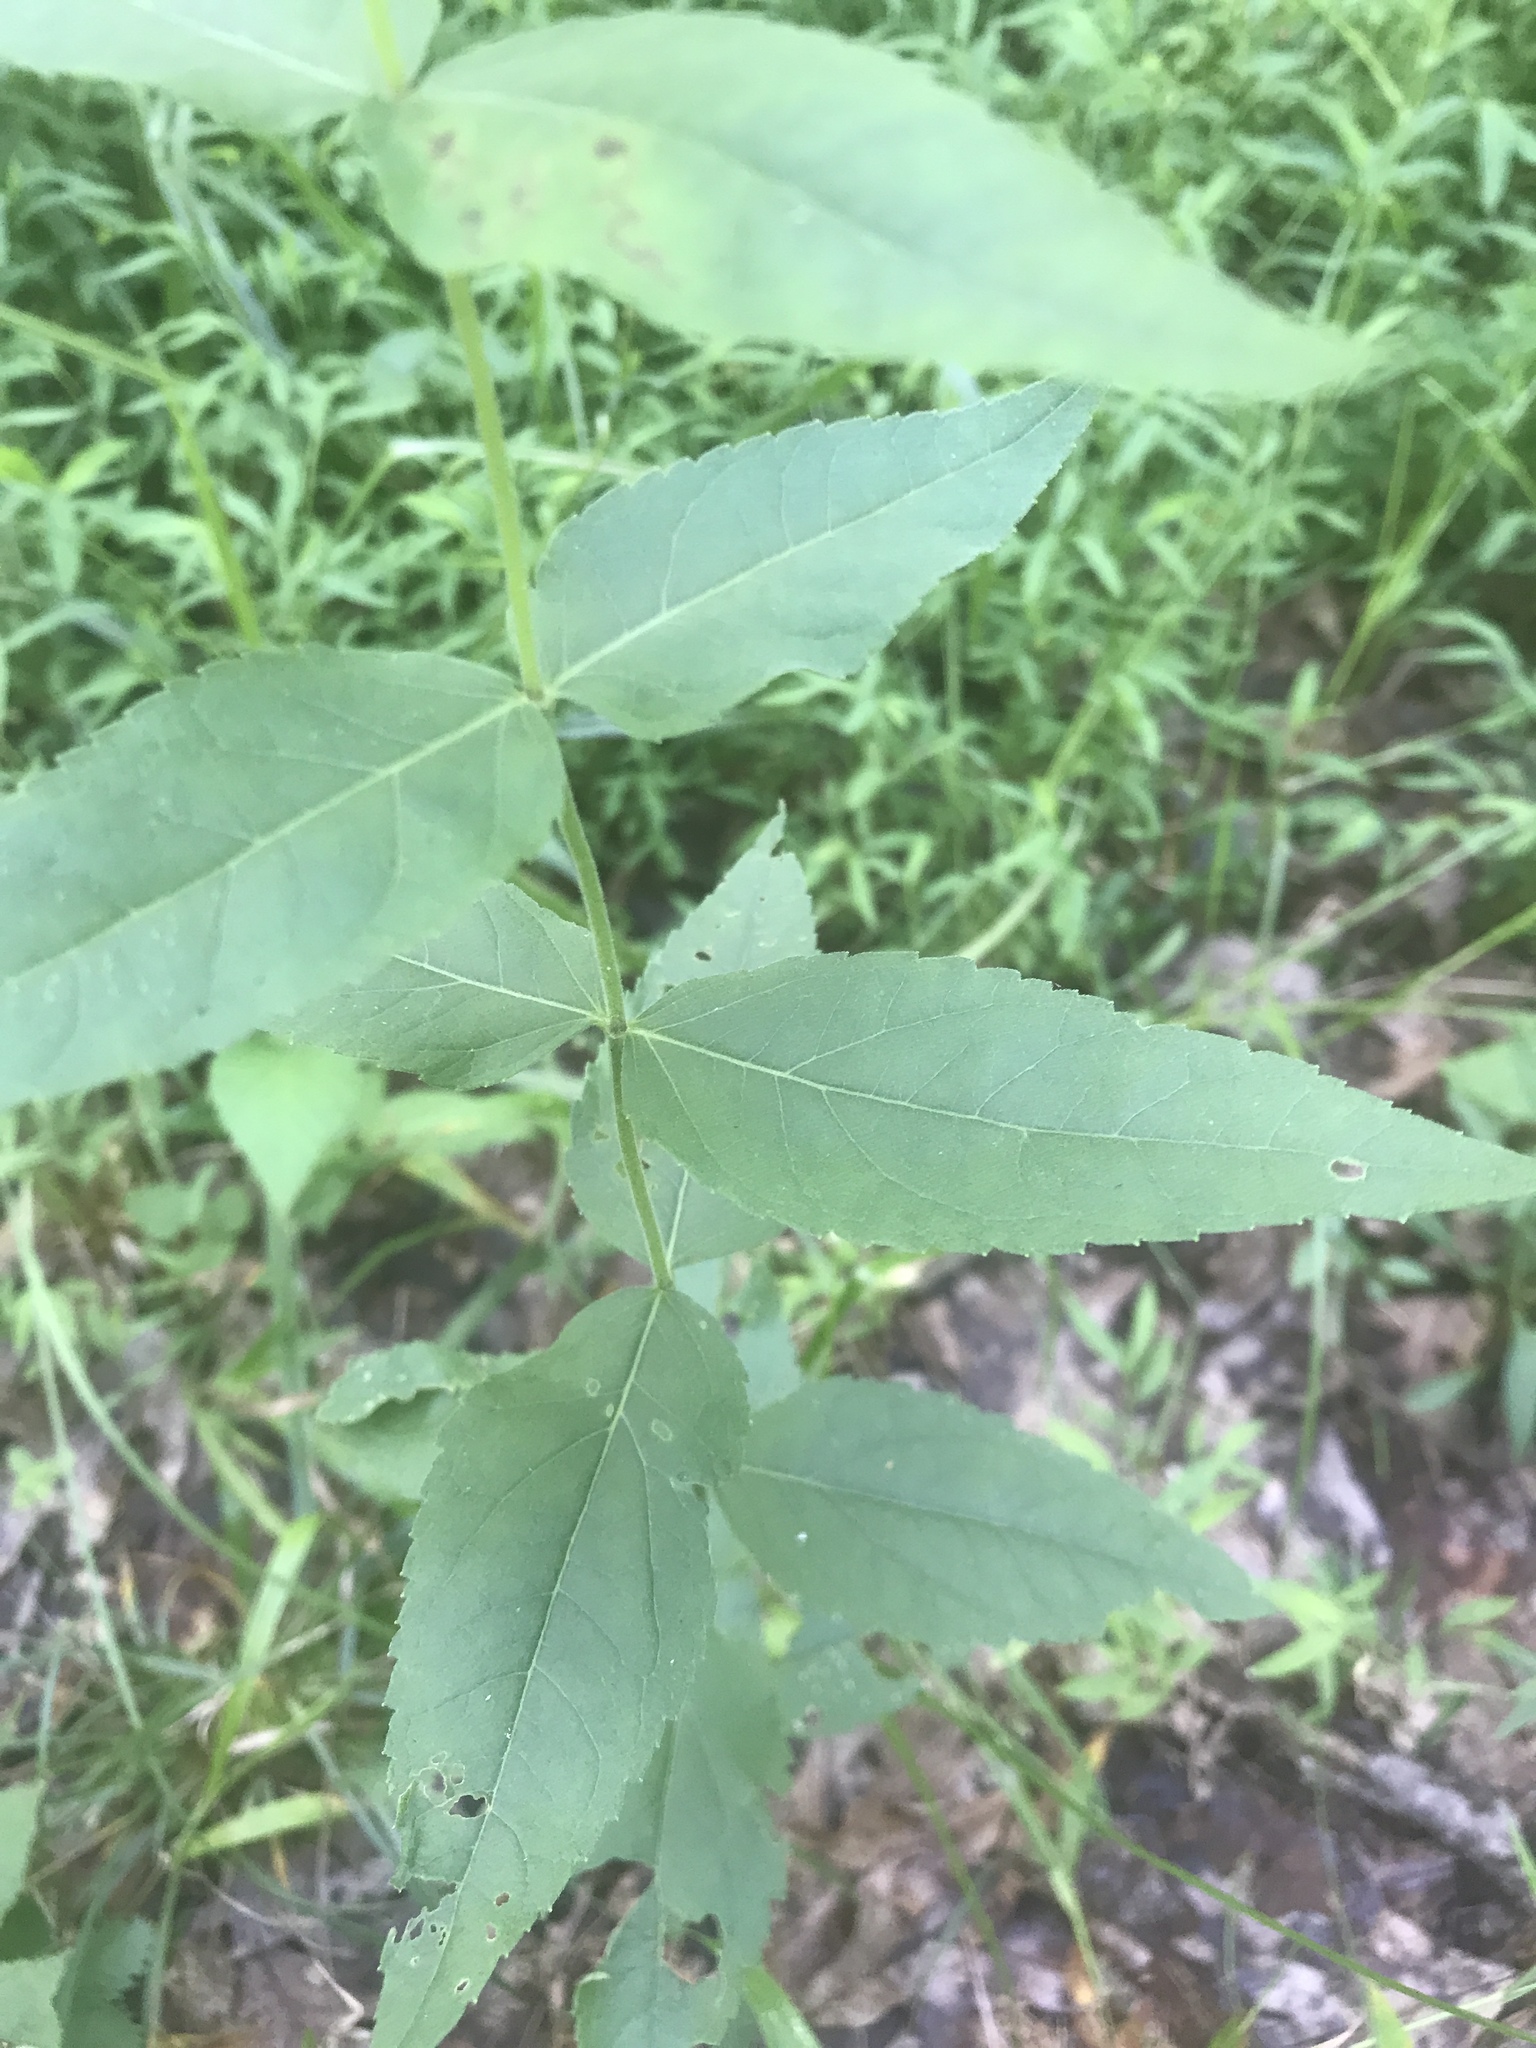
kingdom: Plantae
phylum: Tracheophyta
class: Magnoliopsida
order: Asterales
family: Asteraceae
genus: Eupatorium
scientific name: Eupatorium godfreyanum
